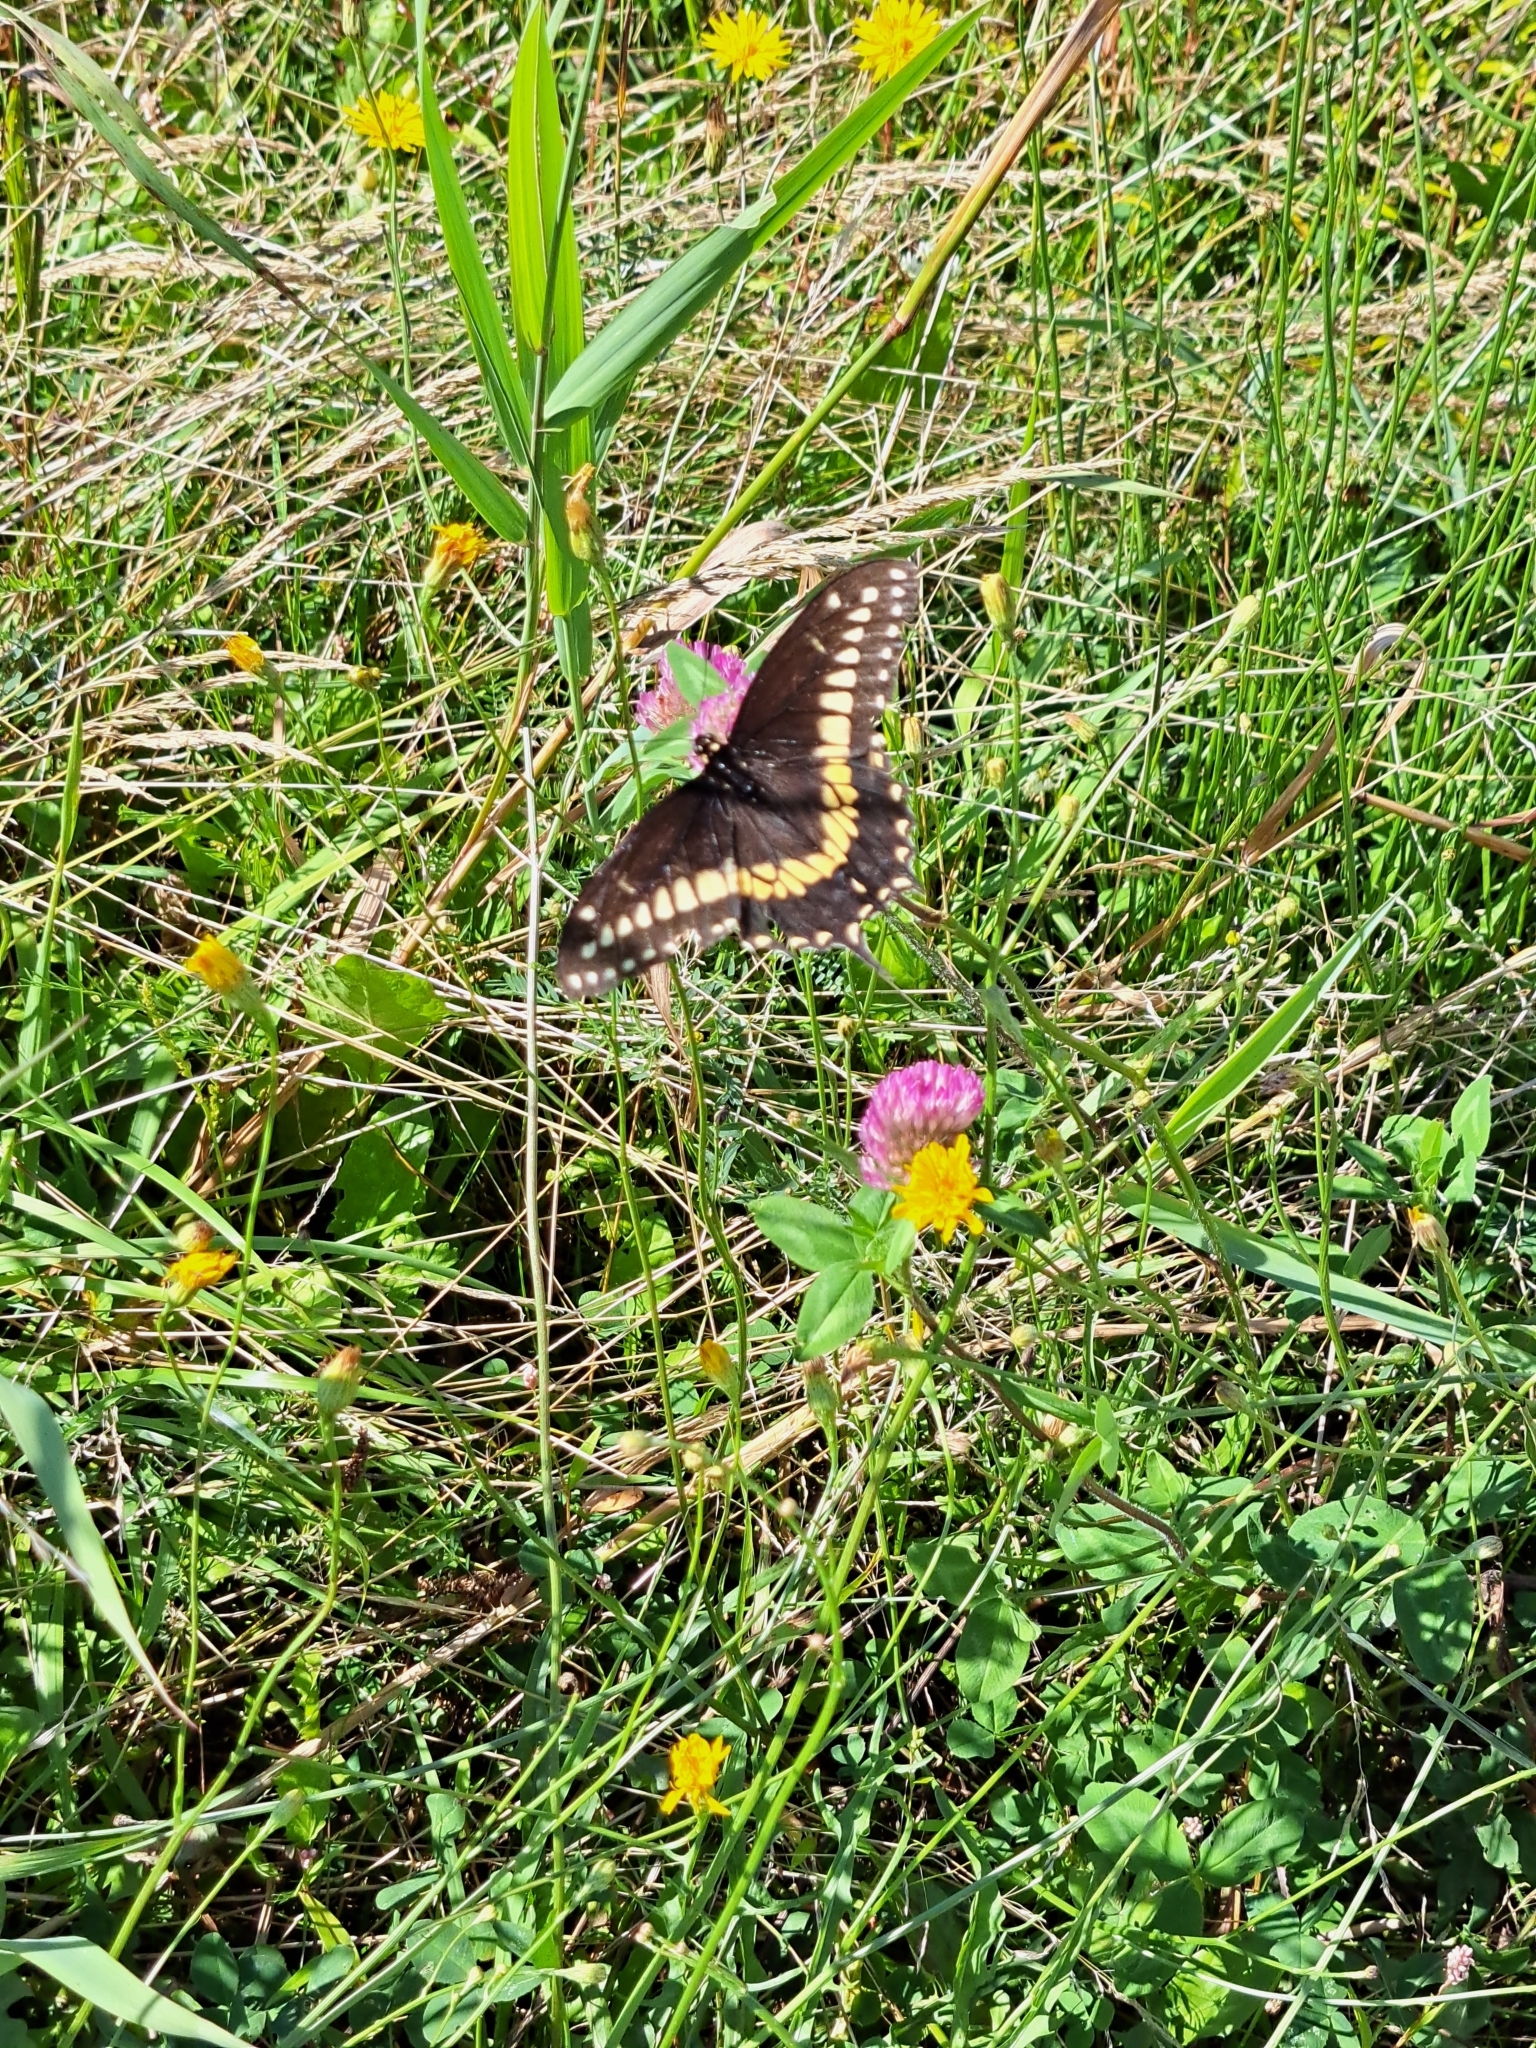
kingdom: Animalia
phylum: Arthropoda
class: Insecta
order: Lepidoptera
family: Papilionidae
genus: Papilio
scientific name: Papilio polyxenes
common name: Black swallowtail
